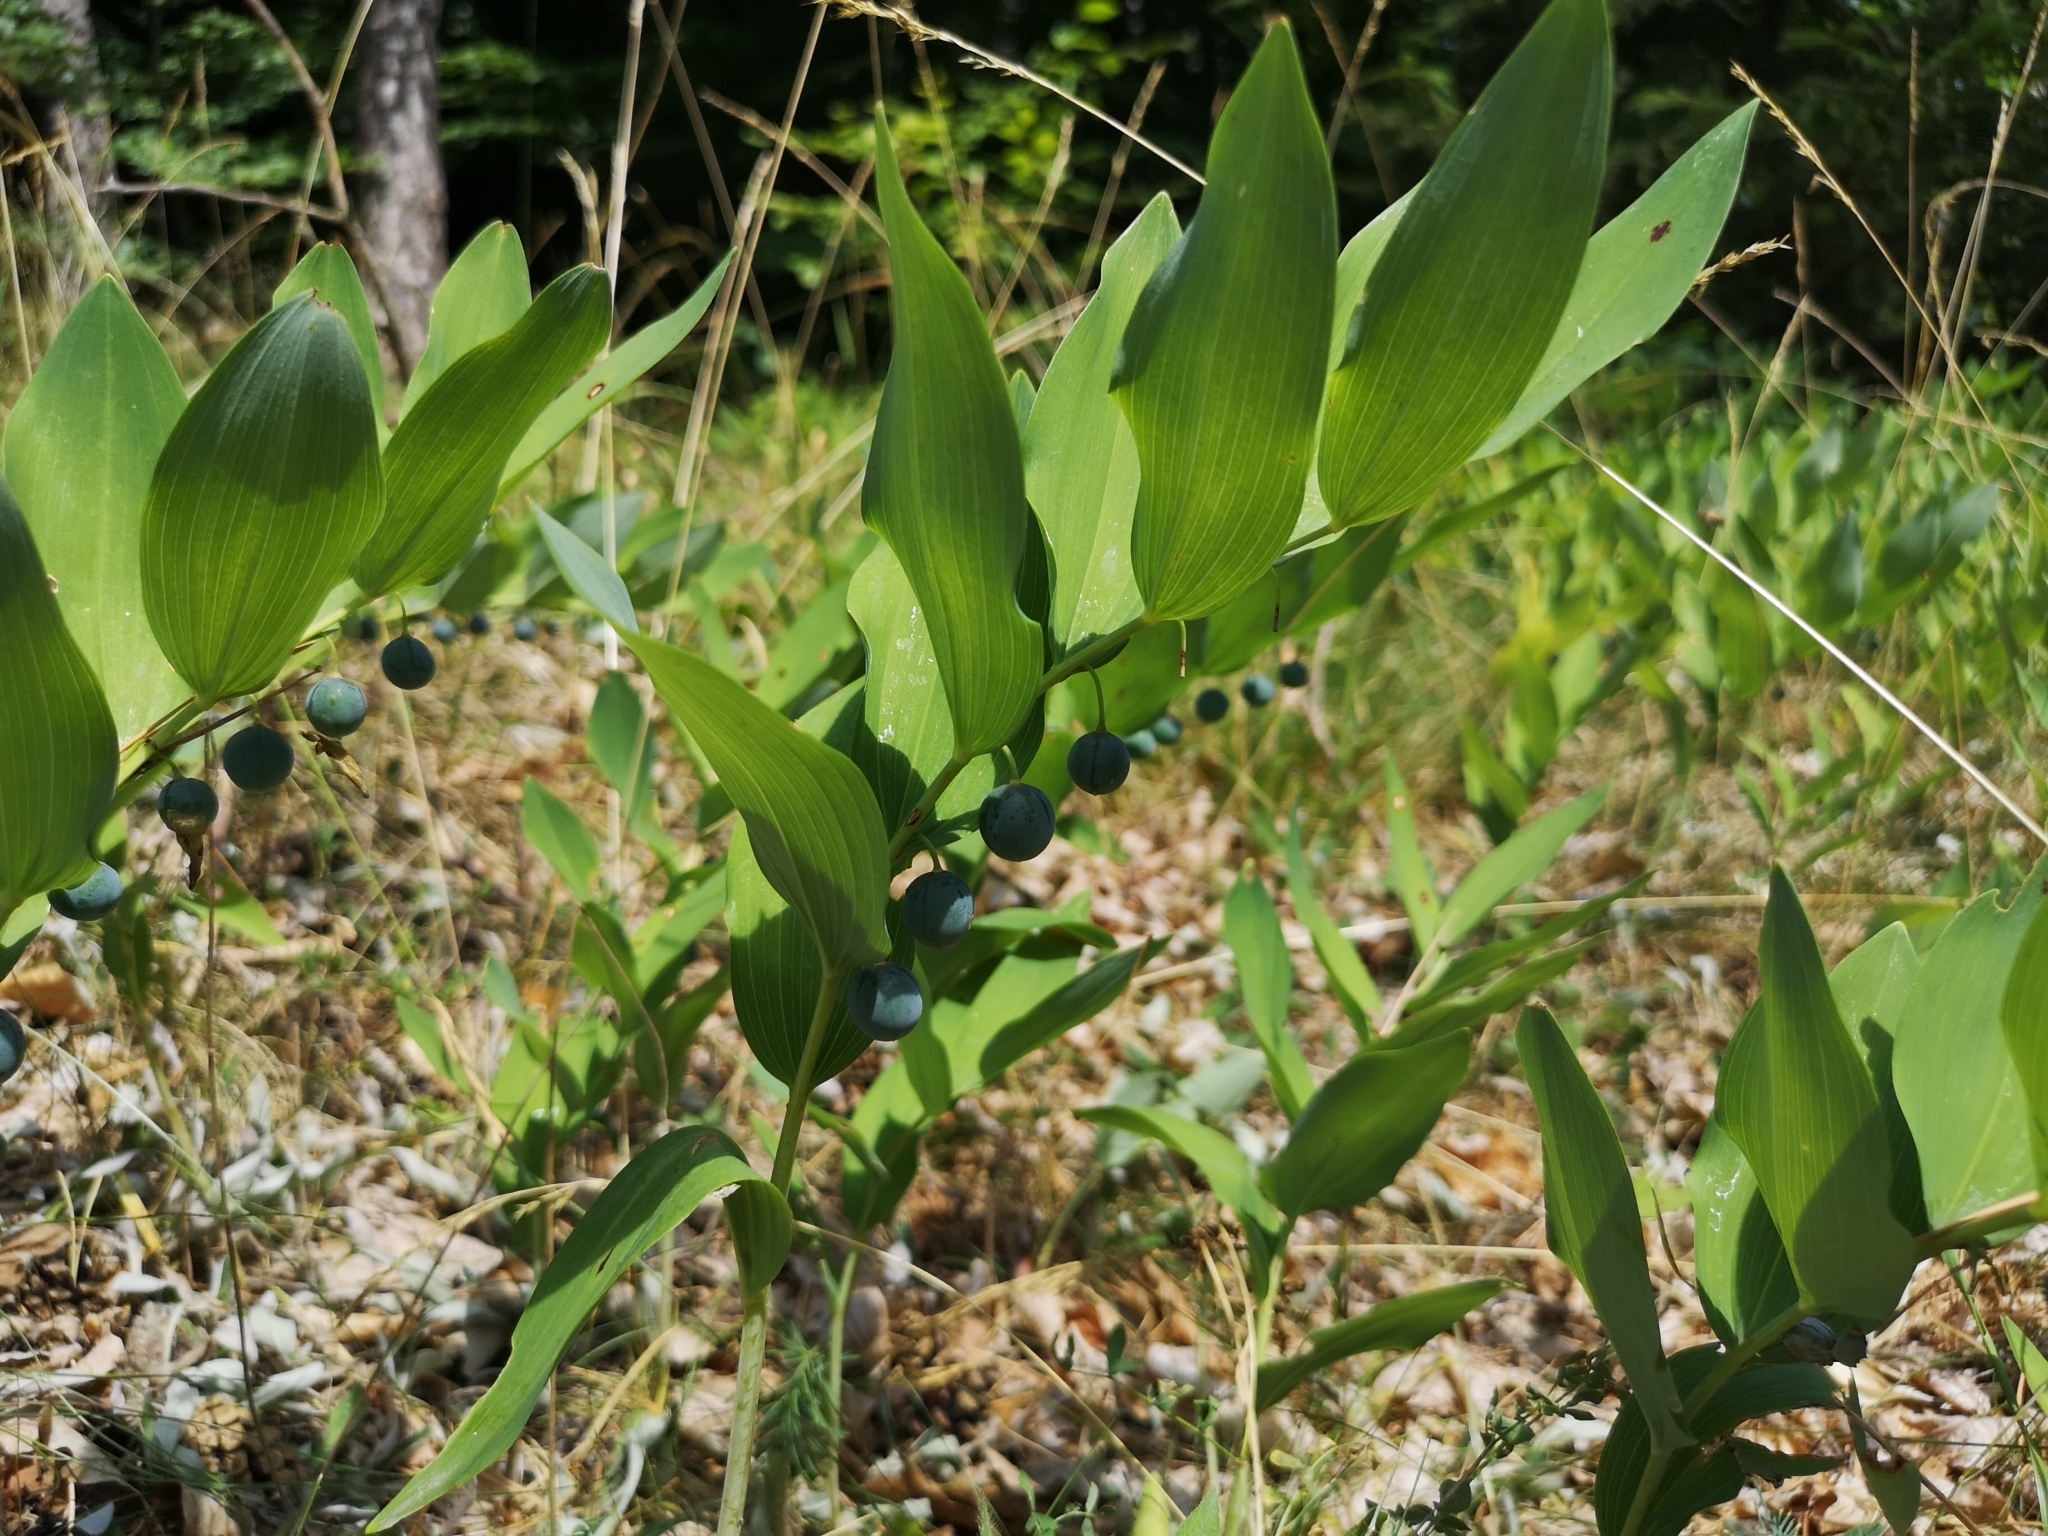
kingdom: Plantae
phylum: Tracheophyta
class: Liliopsida
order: Asparagales
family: Asparagaceae
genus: Polygonatum
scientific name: Polygonatum odoratum
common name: Angular solomon's-seal
